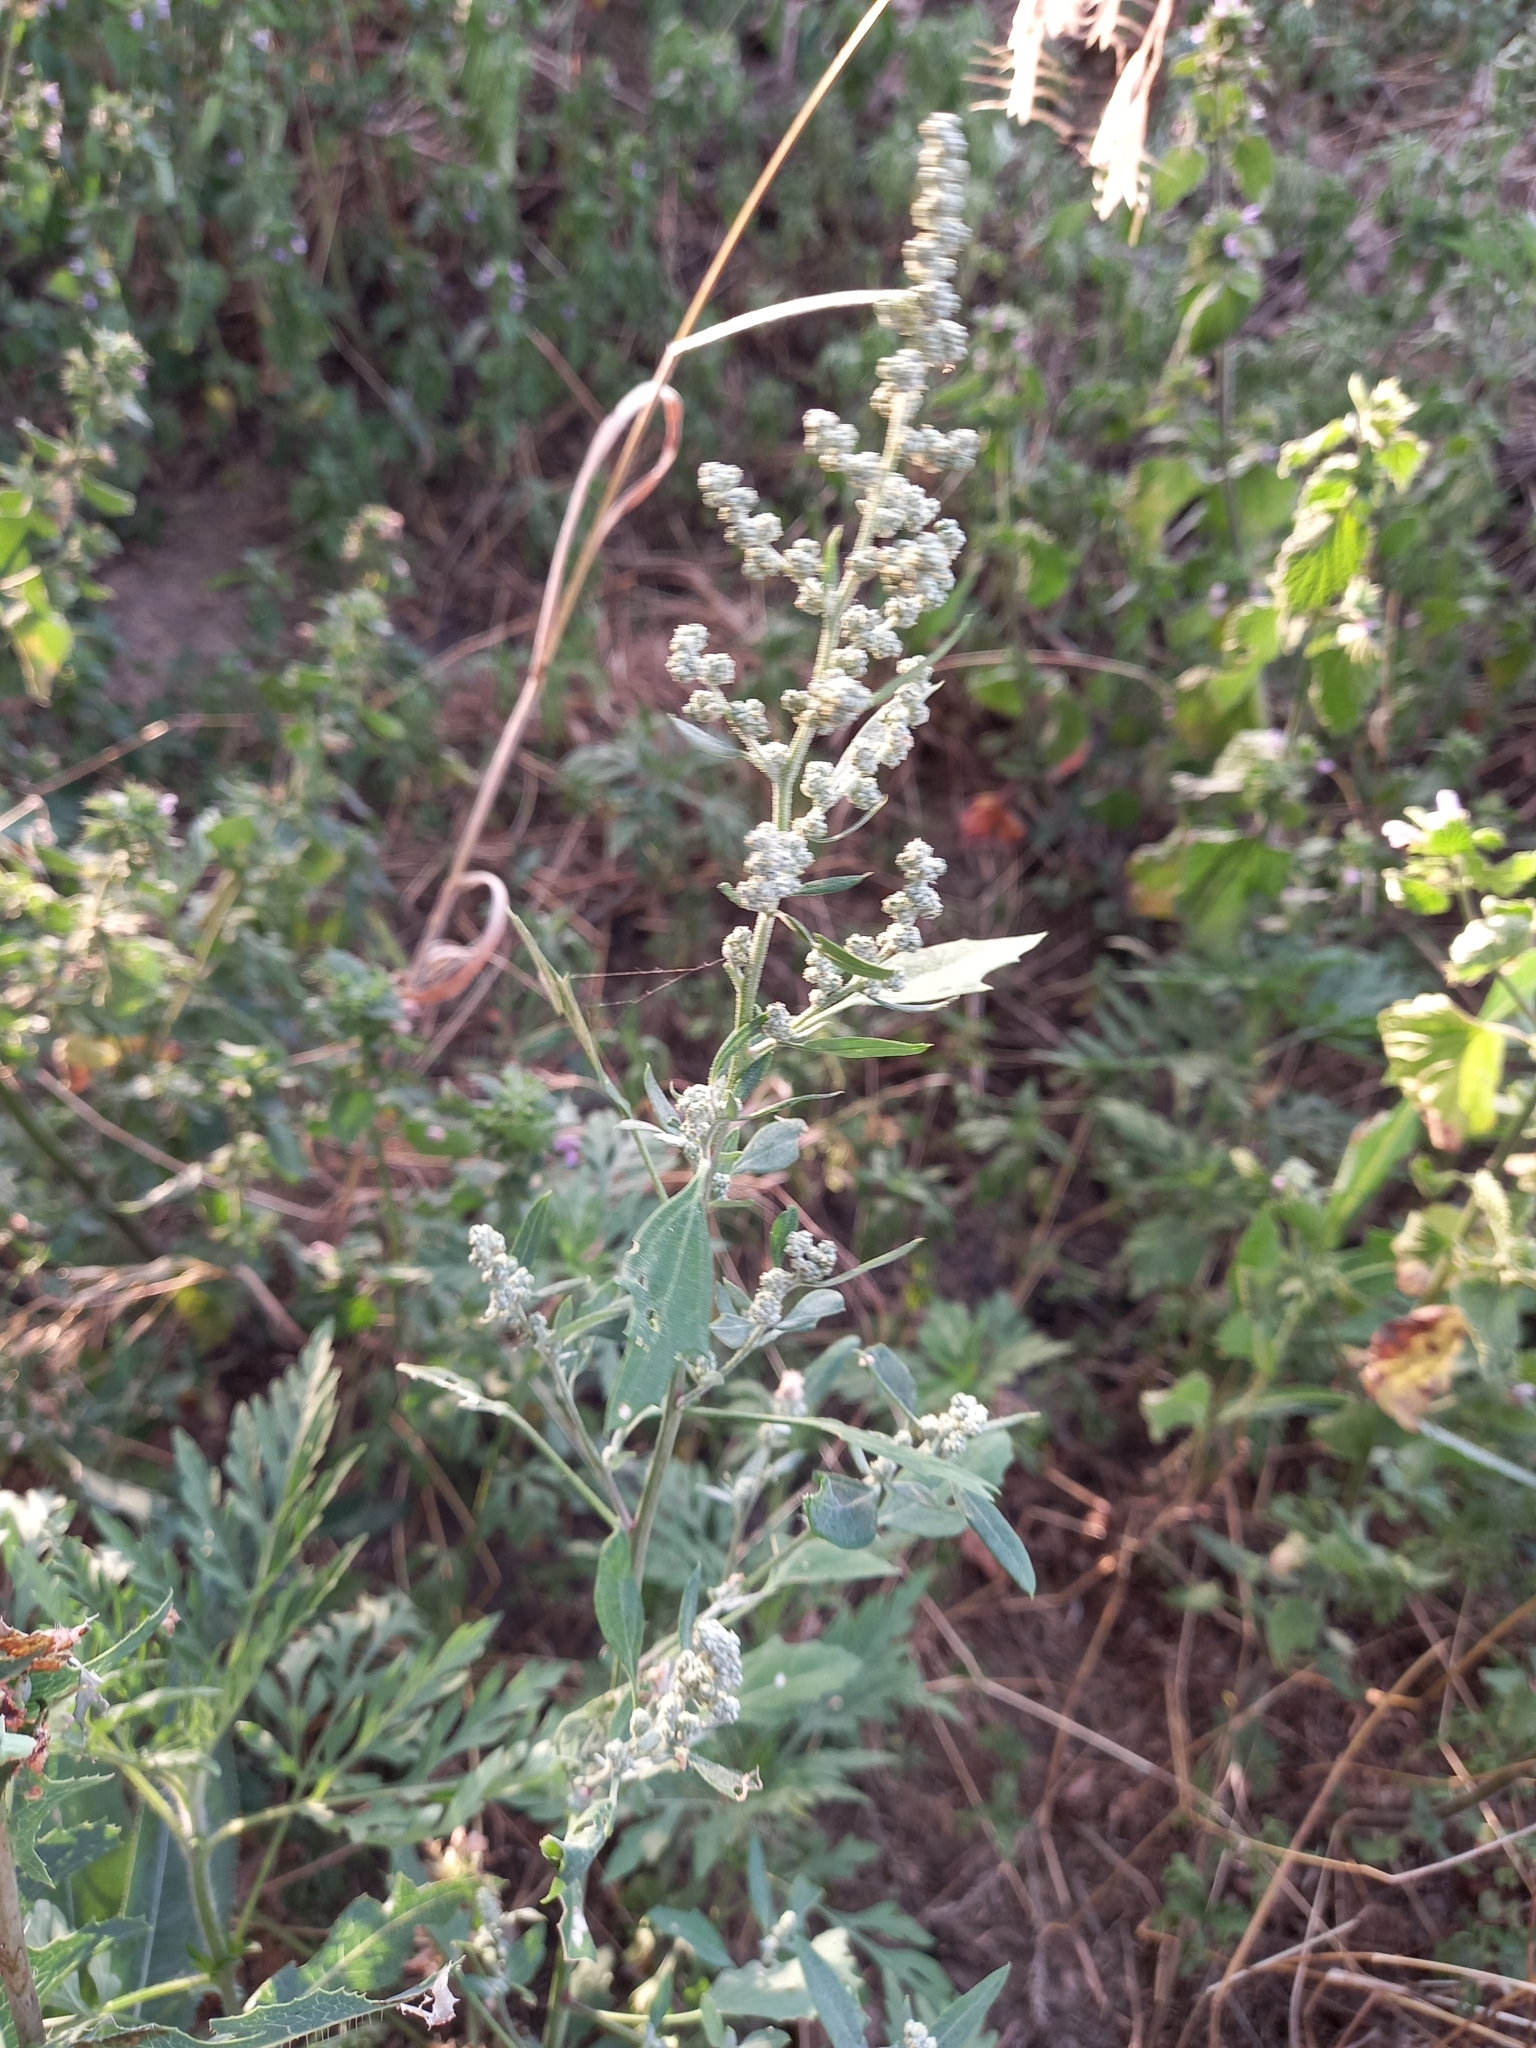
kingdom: Plantae
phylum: Tracheophyta
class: Magnoliopsida
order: Caryophyllales
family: Amaranthaceae
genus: Chenopodium
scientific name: Chenopodium album
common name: Fat-hen
